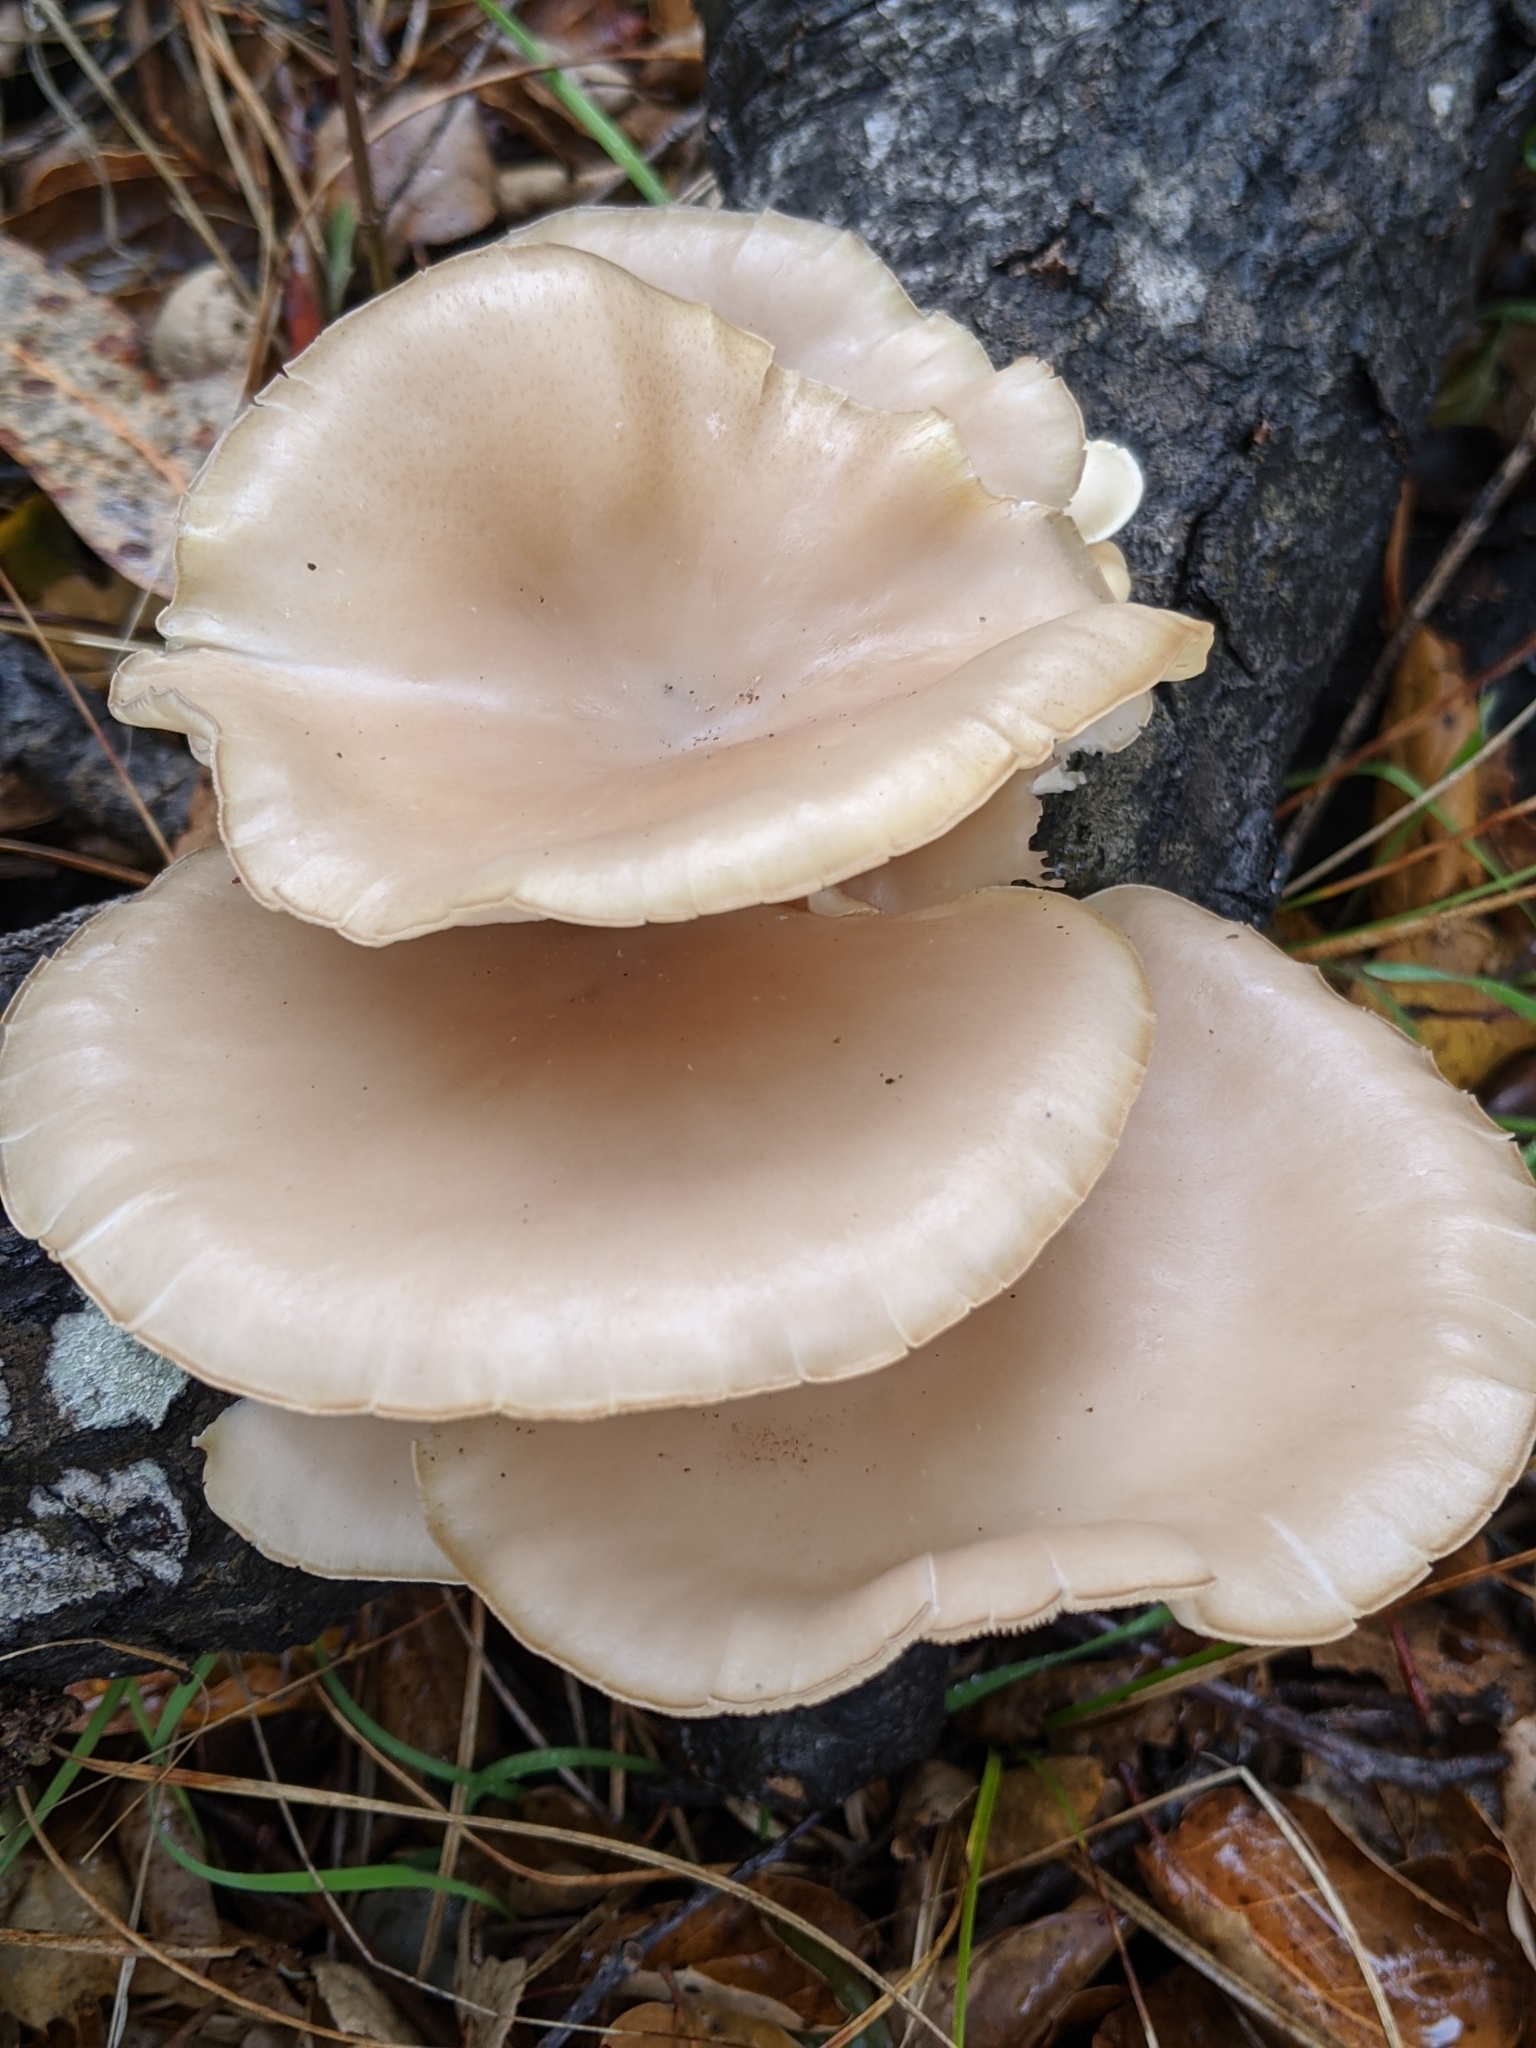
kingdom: Fungi
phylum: Basidiomycota
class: Agaricomycetes
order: Agaricales
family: Pleurotaceae
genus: Pleurotus
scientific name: Pleurotus pulmonarius
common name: Pale oyster
